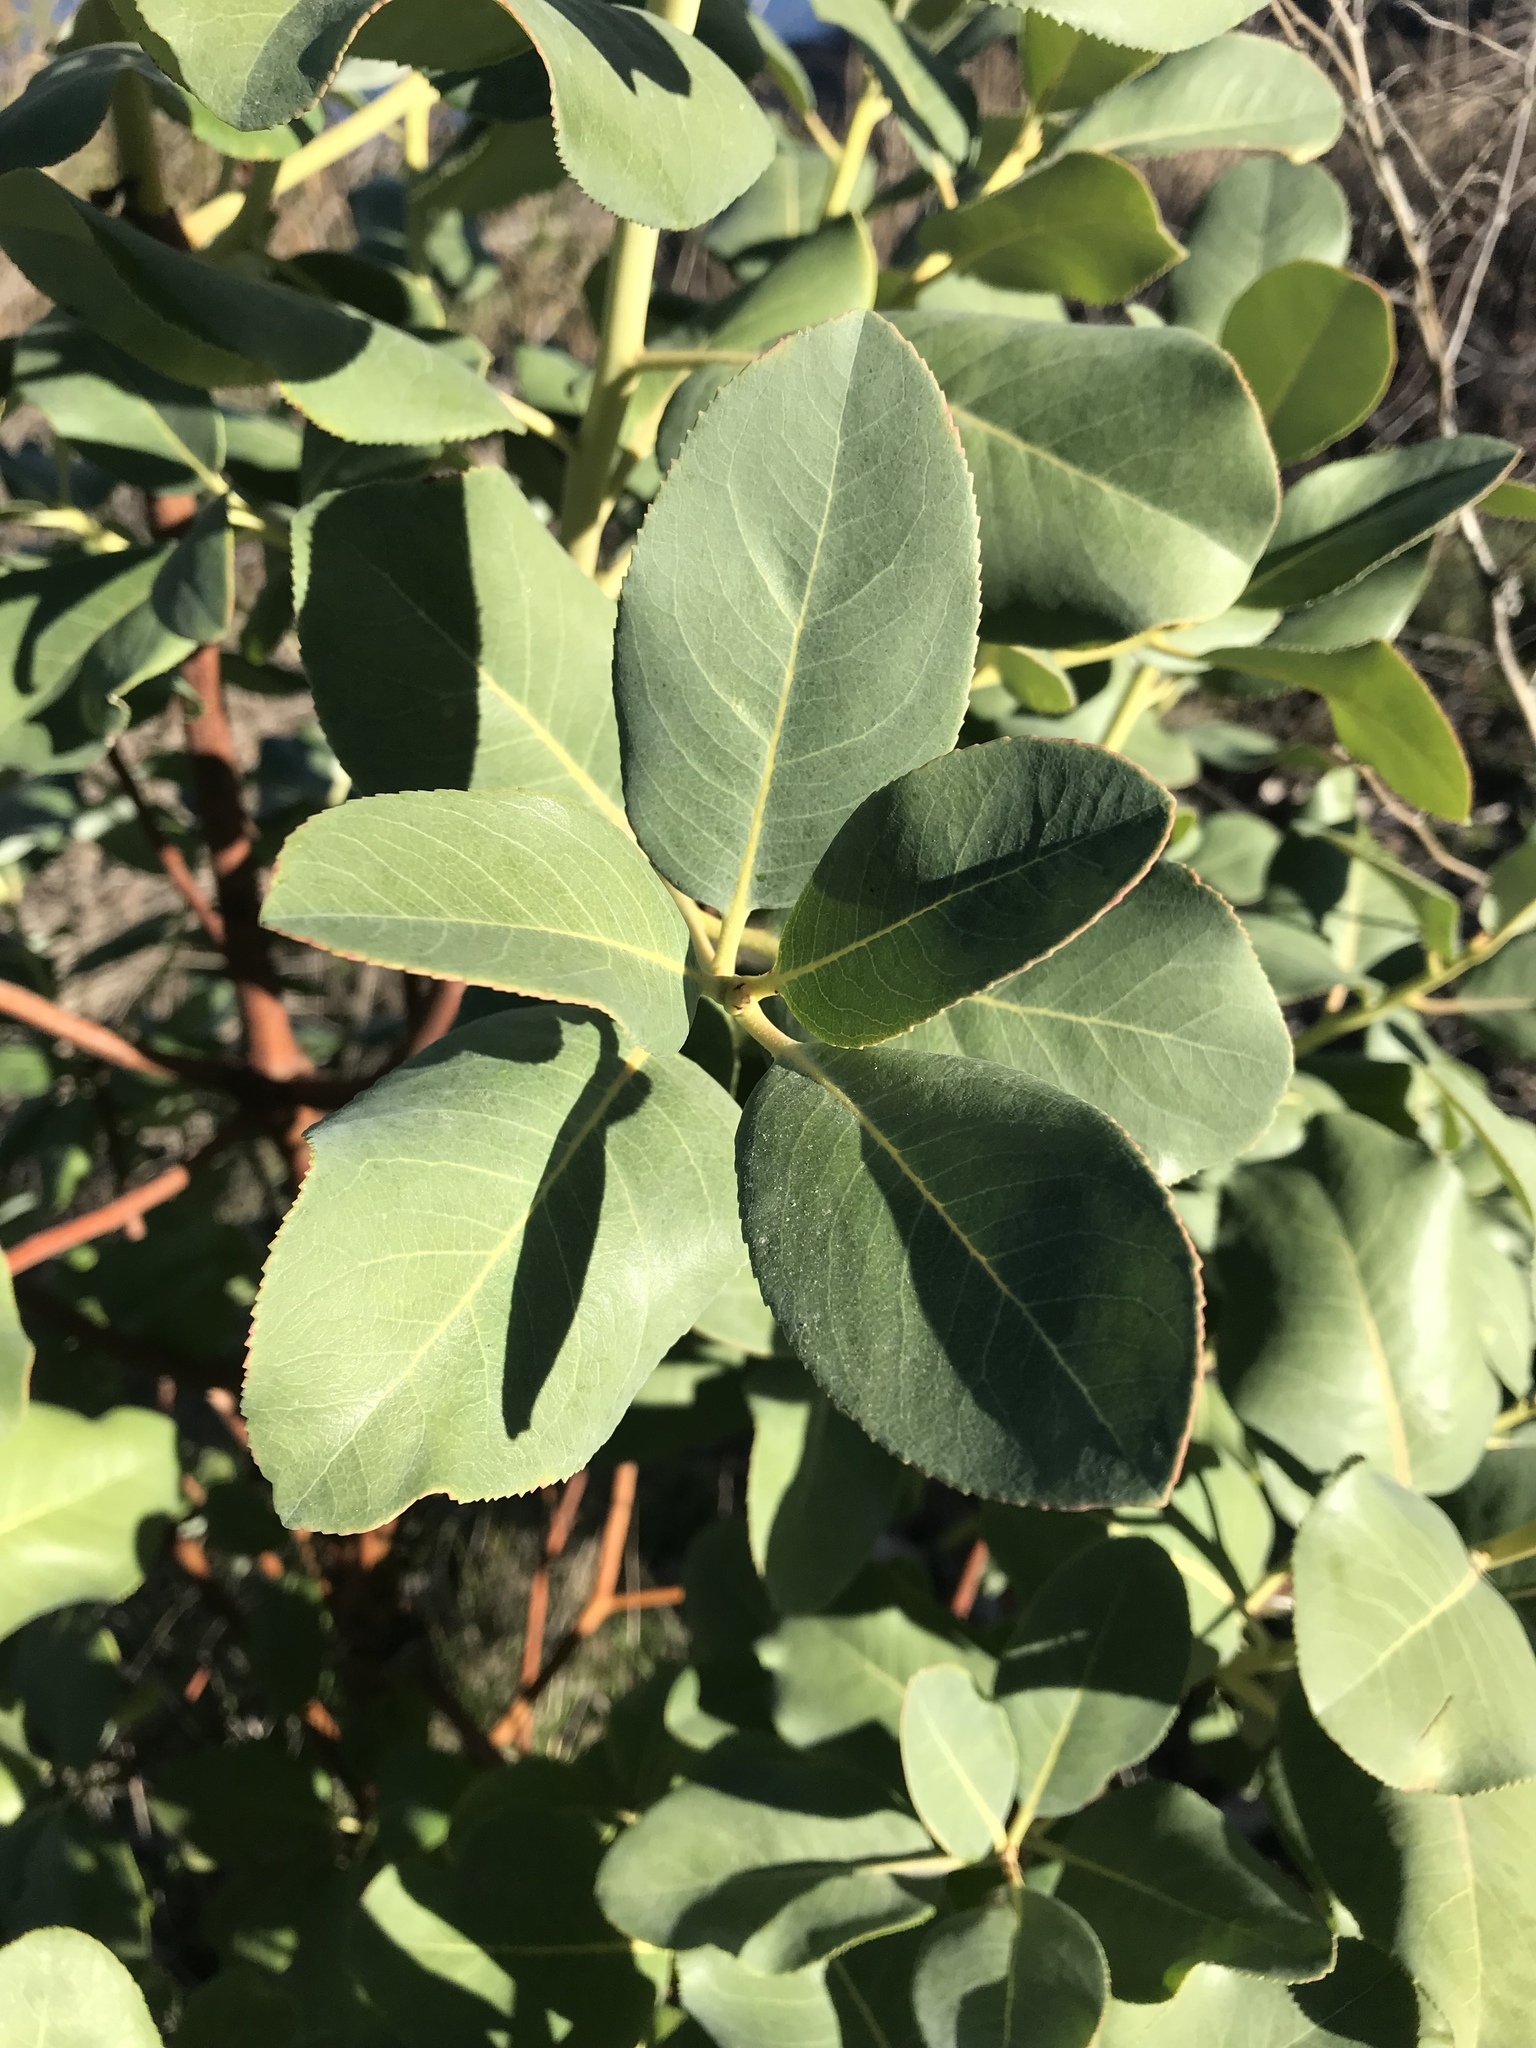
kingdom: Plantae
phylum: Tracheophyta
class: Magnoliopsida
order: Ericales
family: Ericaceae
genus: Arbutus
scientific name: Arbutus menziesii
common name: Pacific madrone
